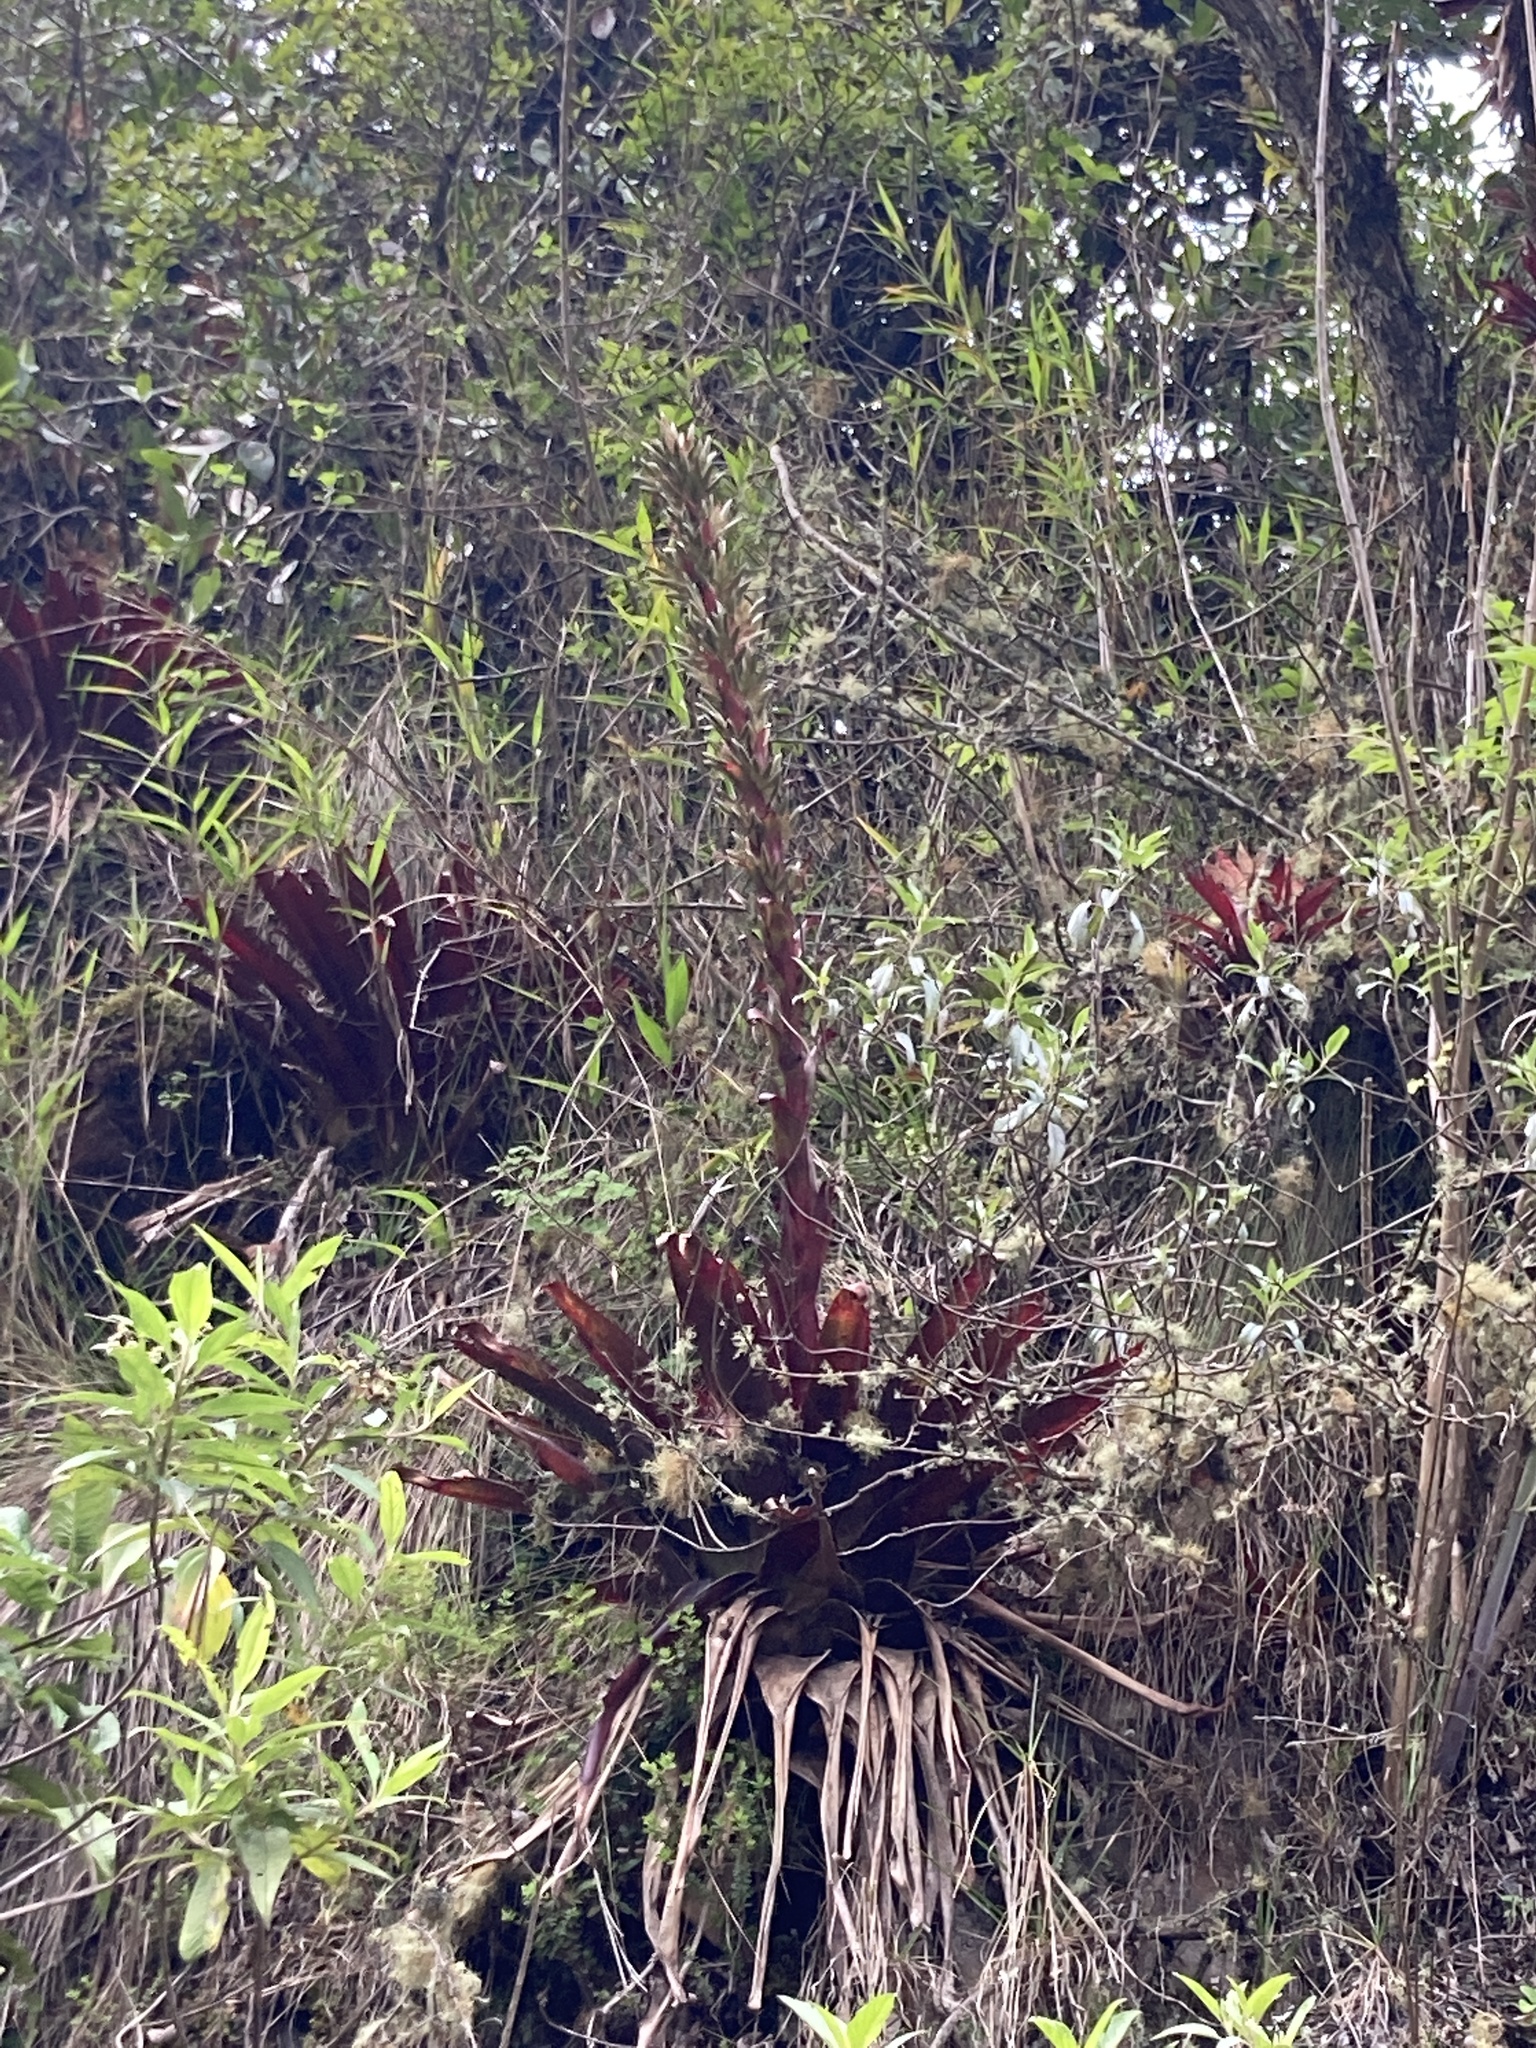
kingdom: Plantae
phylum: Tracheophyta
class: Liliopsida
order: Poales
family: Bromeliaceae
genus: Tillandsia
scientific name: Tillandsia pastensis
